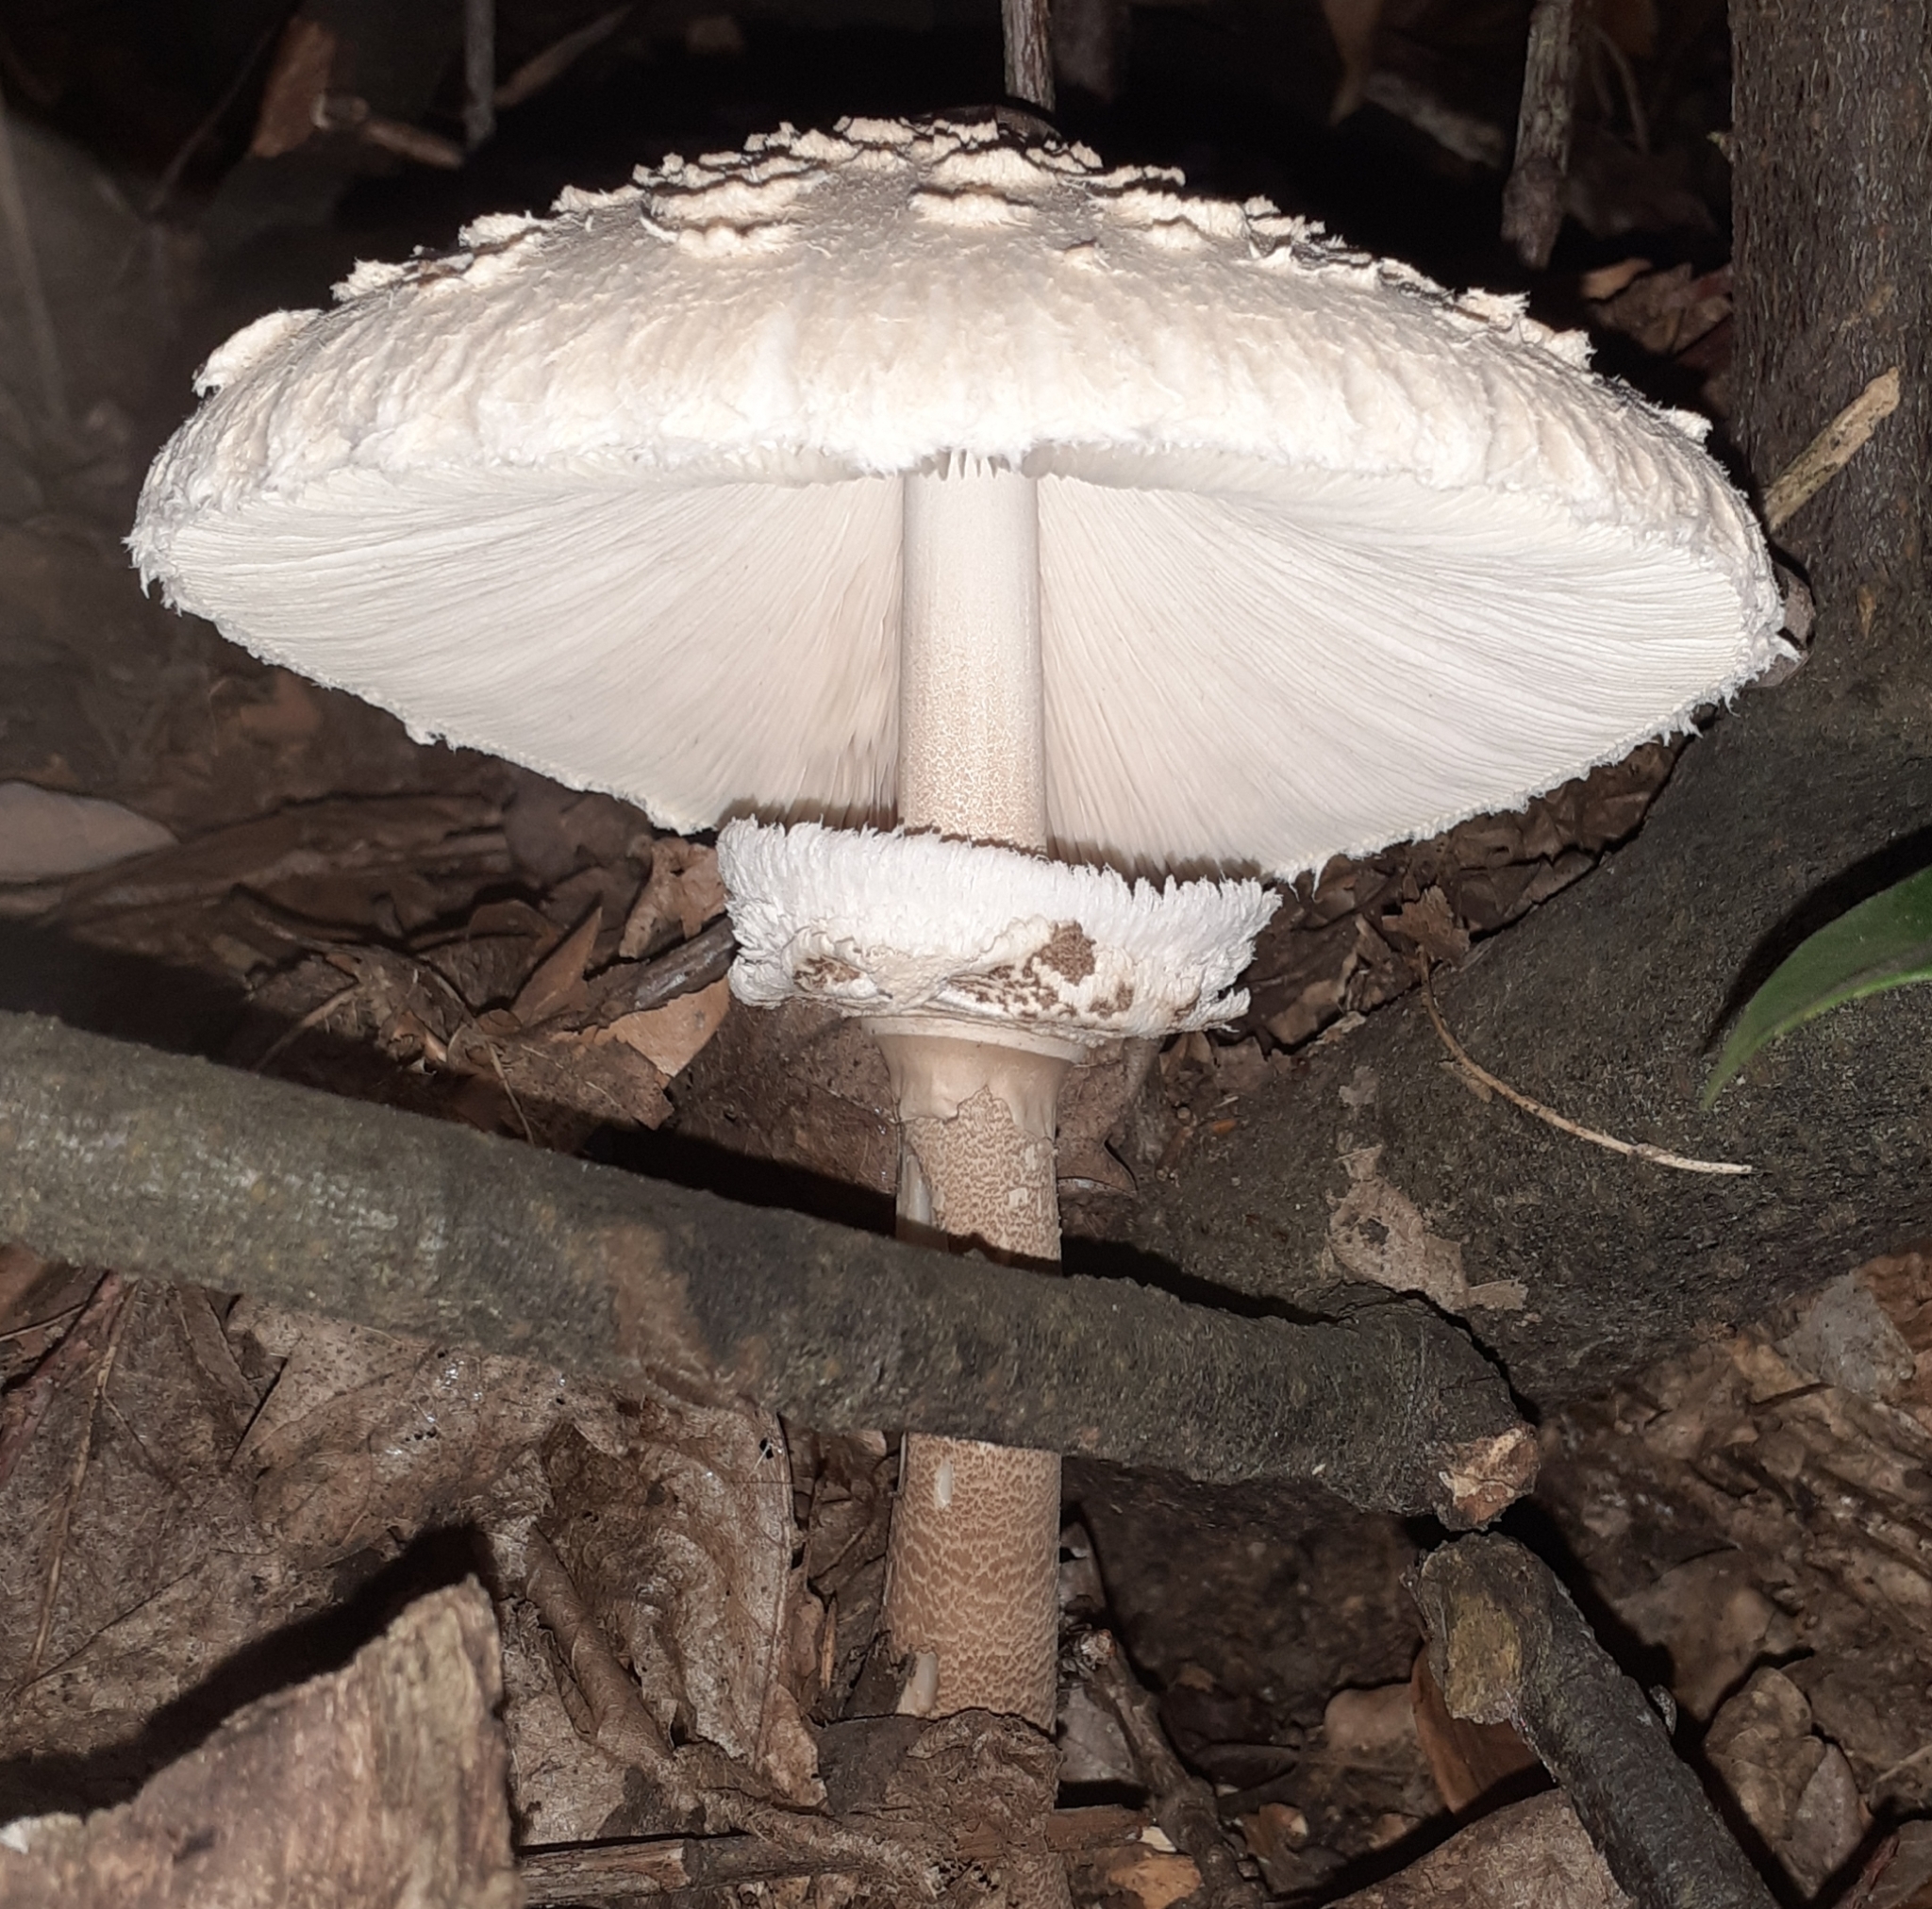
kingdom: Fungi
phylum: Basidiomycota
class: Agaricomycetes
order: Agaricales
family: Agaricaceae
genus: Macrolepiota
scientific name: Macrolepiota procera
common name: Parasol
